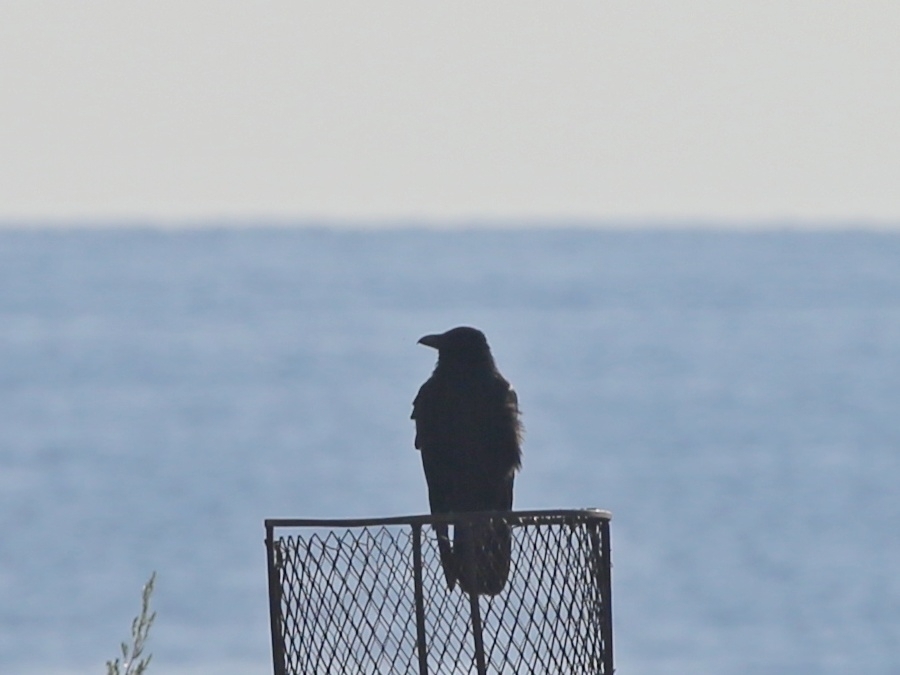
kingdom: Animalia
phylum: Chordata
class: Aves
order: Passeriformes
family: Corvidae
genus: Corvus
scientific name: Corvus corone
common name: Carrion crow
